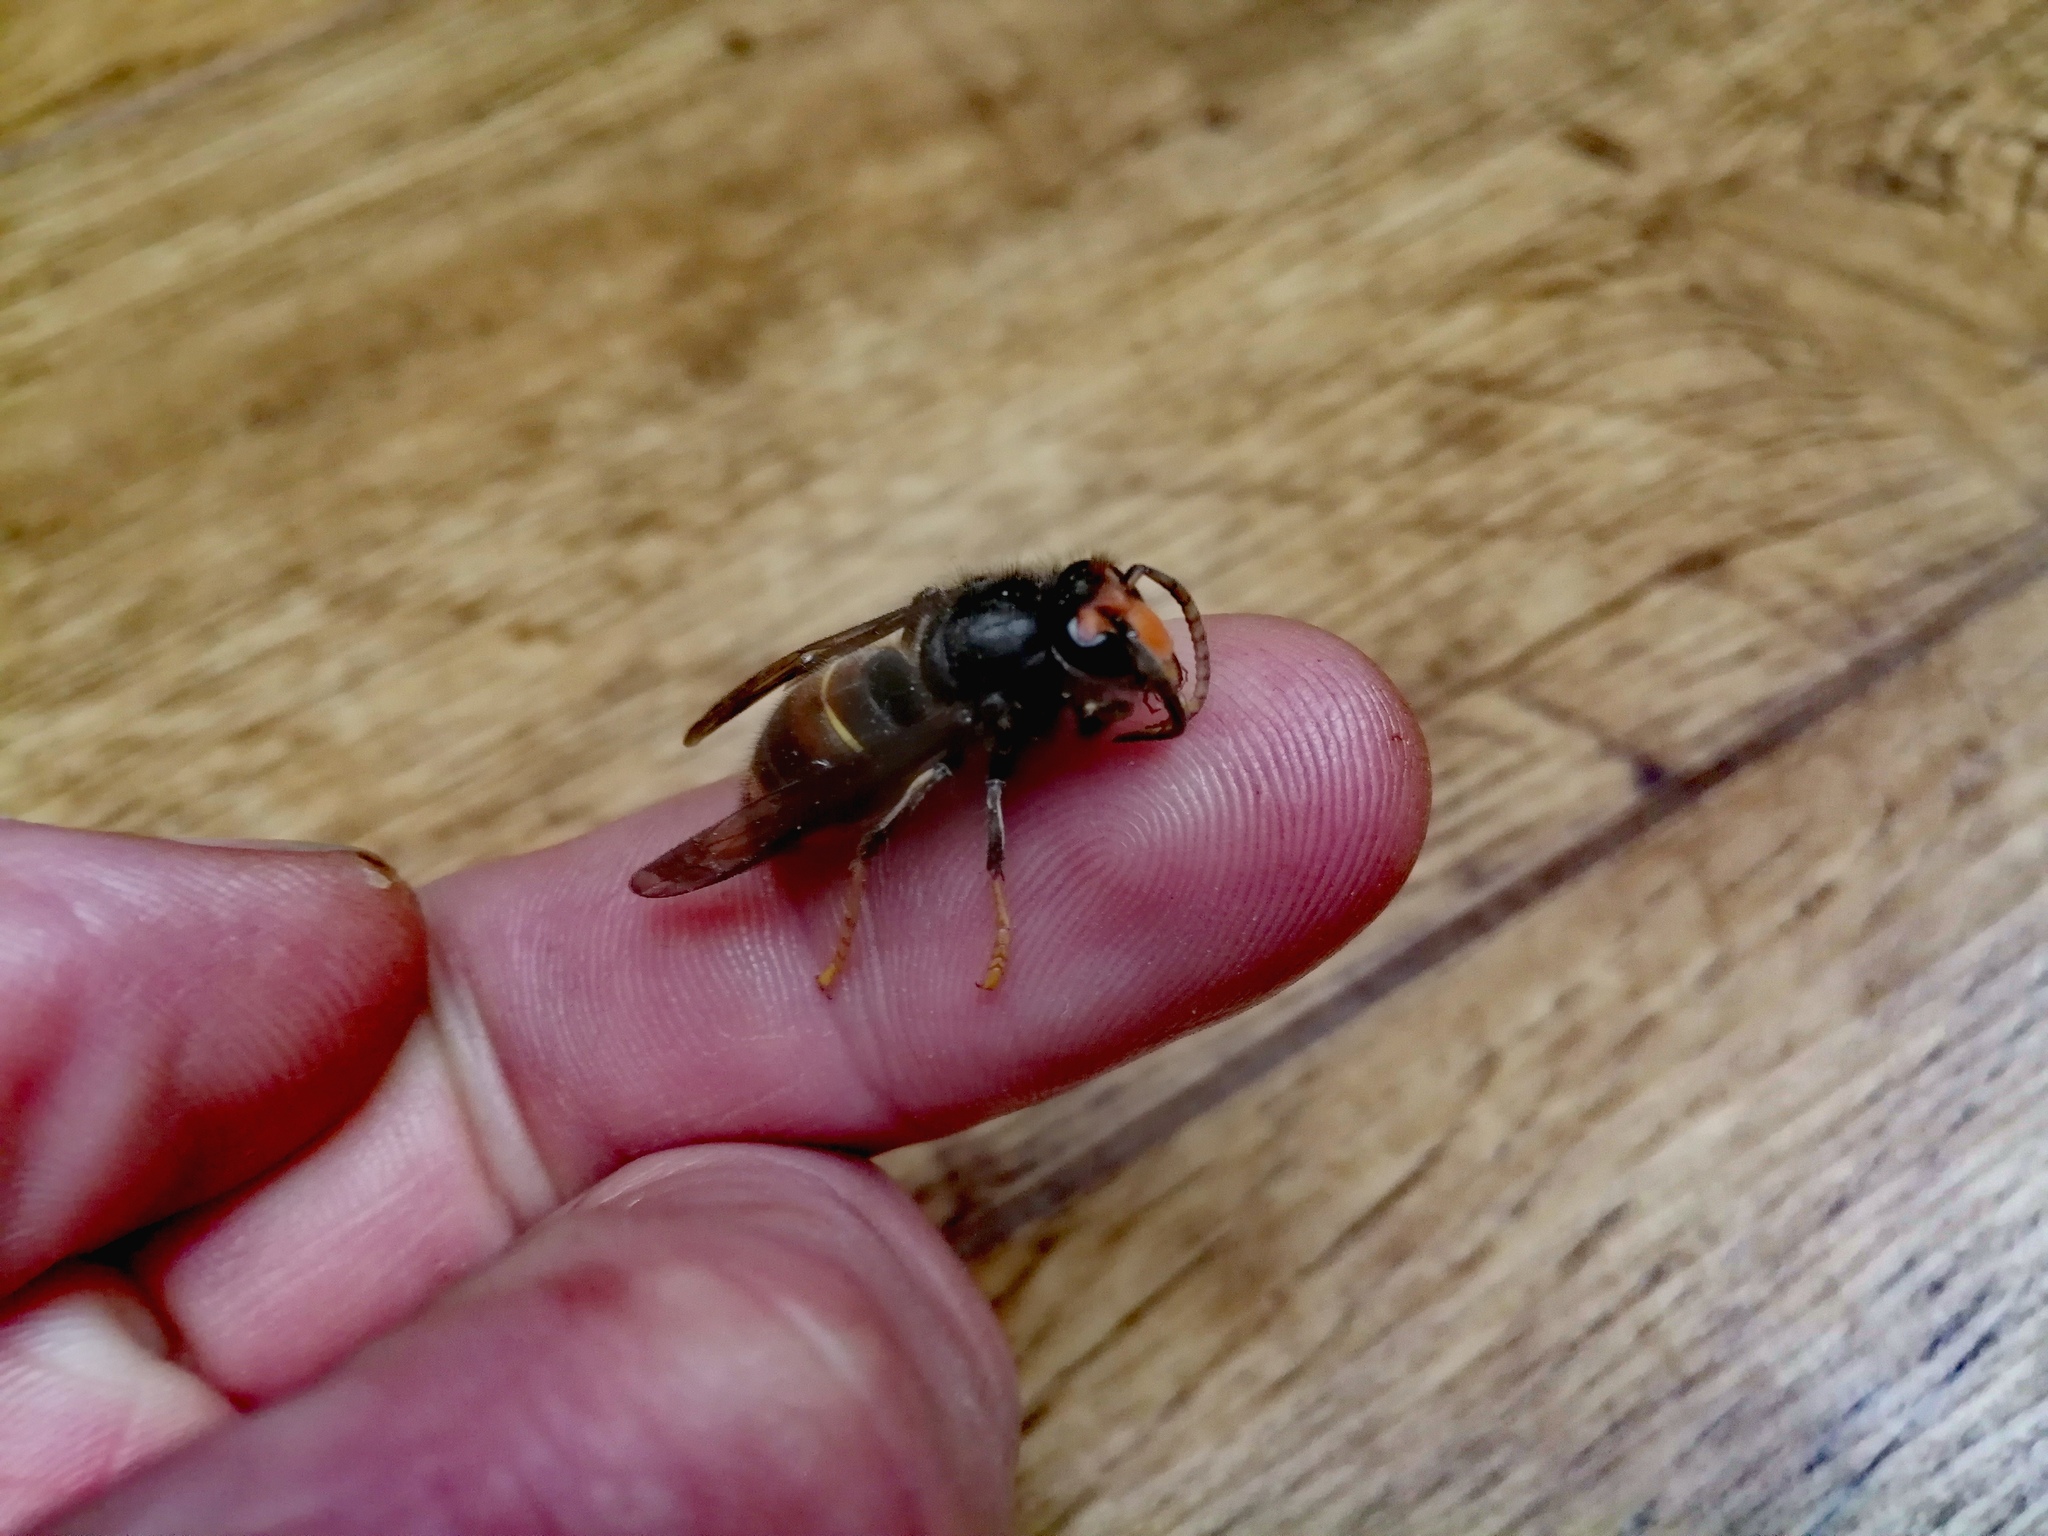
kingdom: Animalia
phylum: Arthropoda
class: Insecta
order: Hymenoptera
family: Vespidae
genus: Vespa
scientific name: Vespa velutina
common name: Asian hornet
